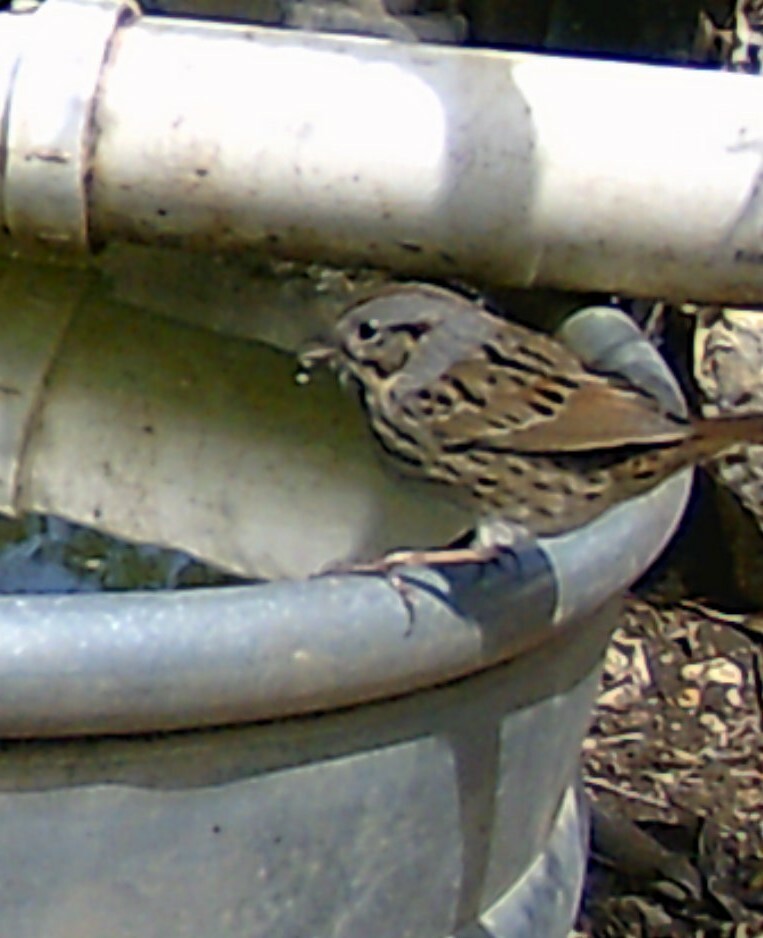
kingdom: Animalia
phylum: Chordata
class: Aves
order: Passeriformes
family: Passerellidae
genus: Melospiza
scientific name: Melospiza lincolnii
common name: Lincoln's sparrow
